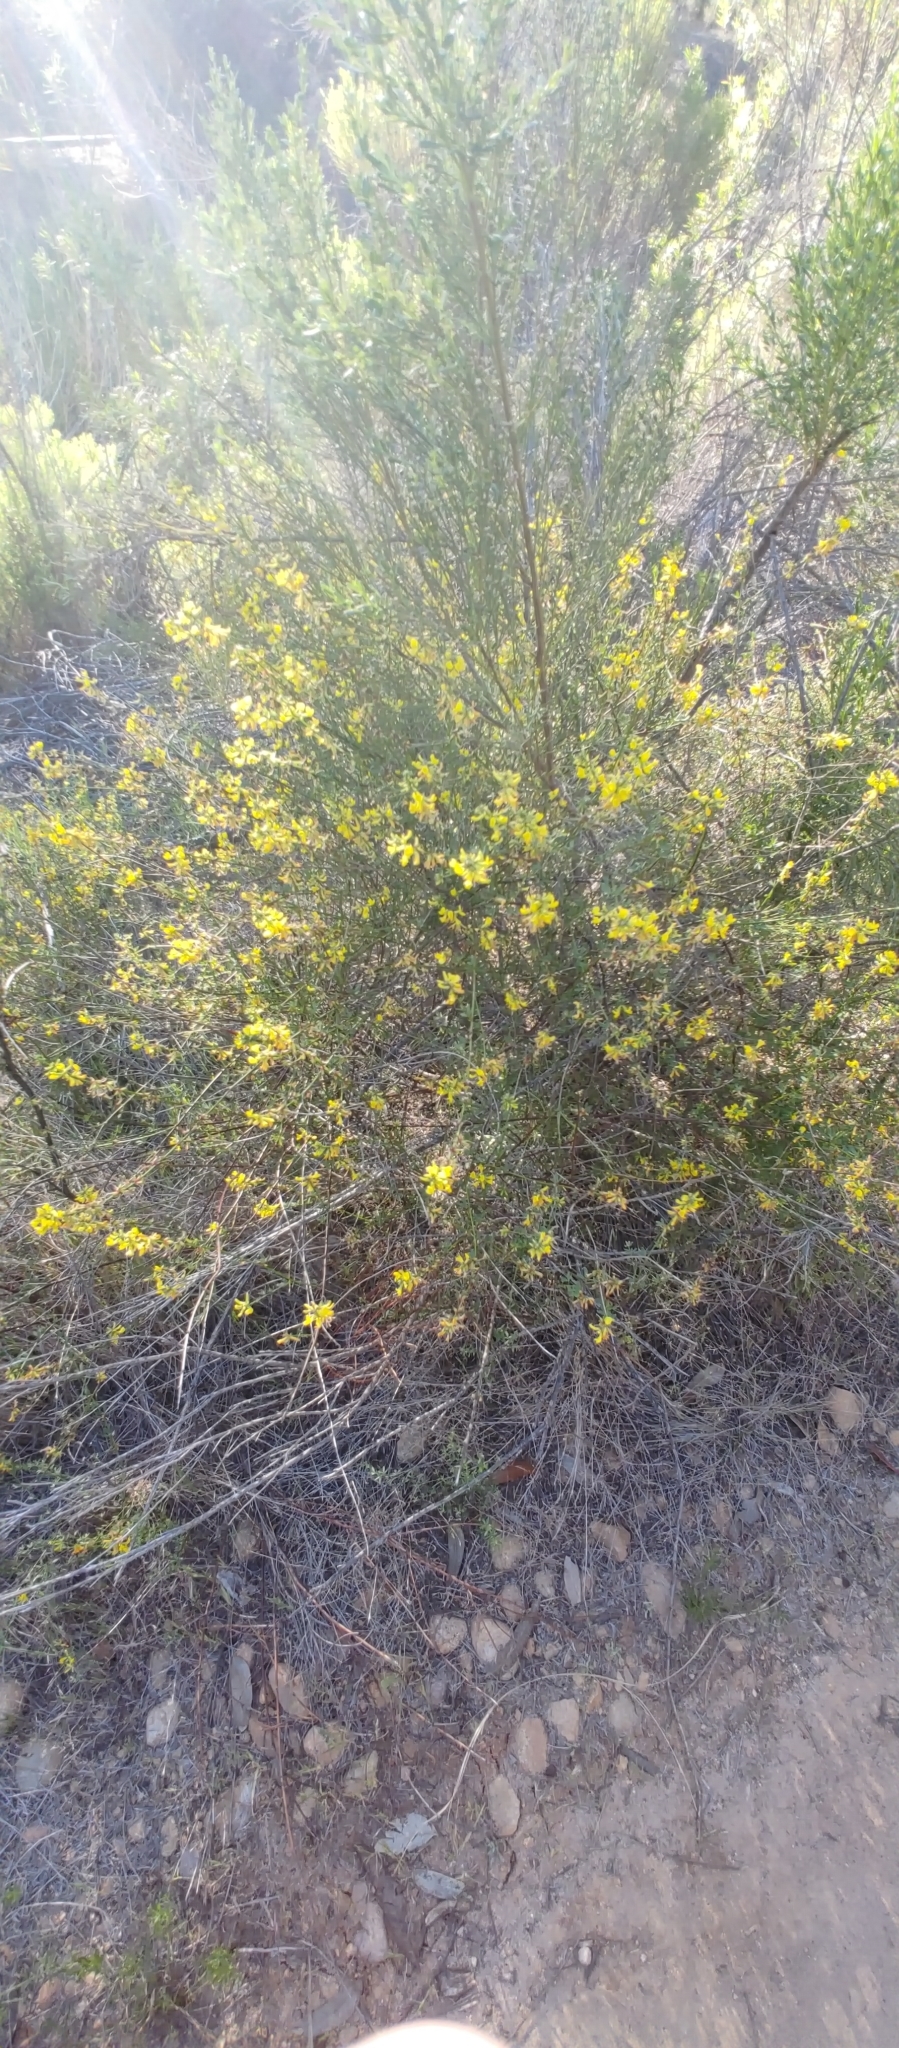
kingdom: Plantae
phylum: Tracheophyta
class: Magnoliopsida
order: Fabales
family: Fabaceae
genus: Acmispon
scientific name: Acmispon glaber
